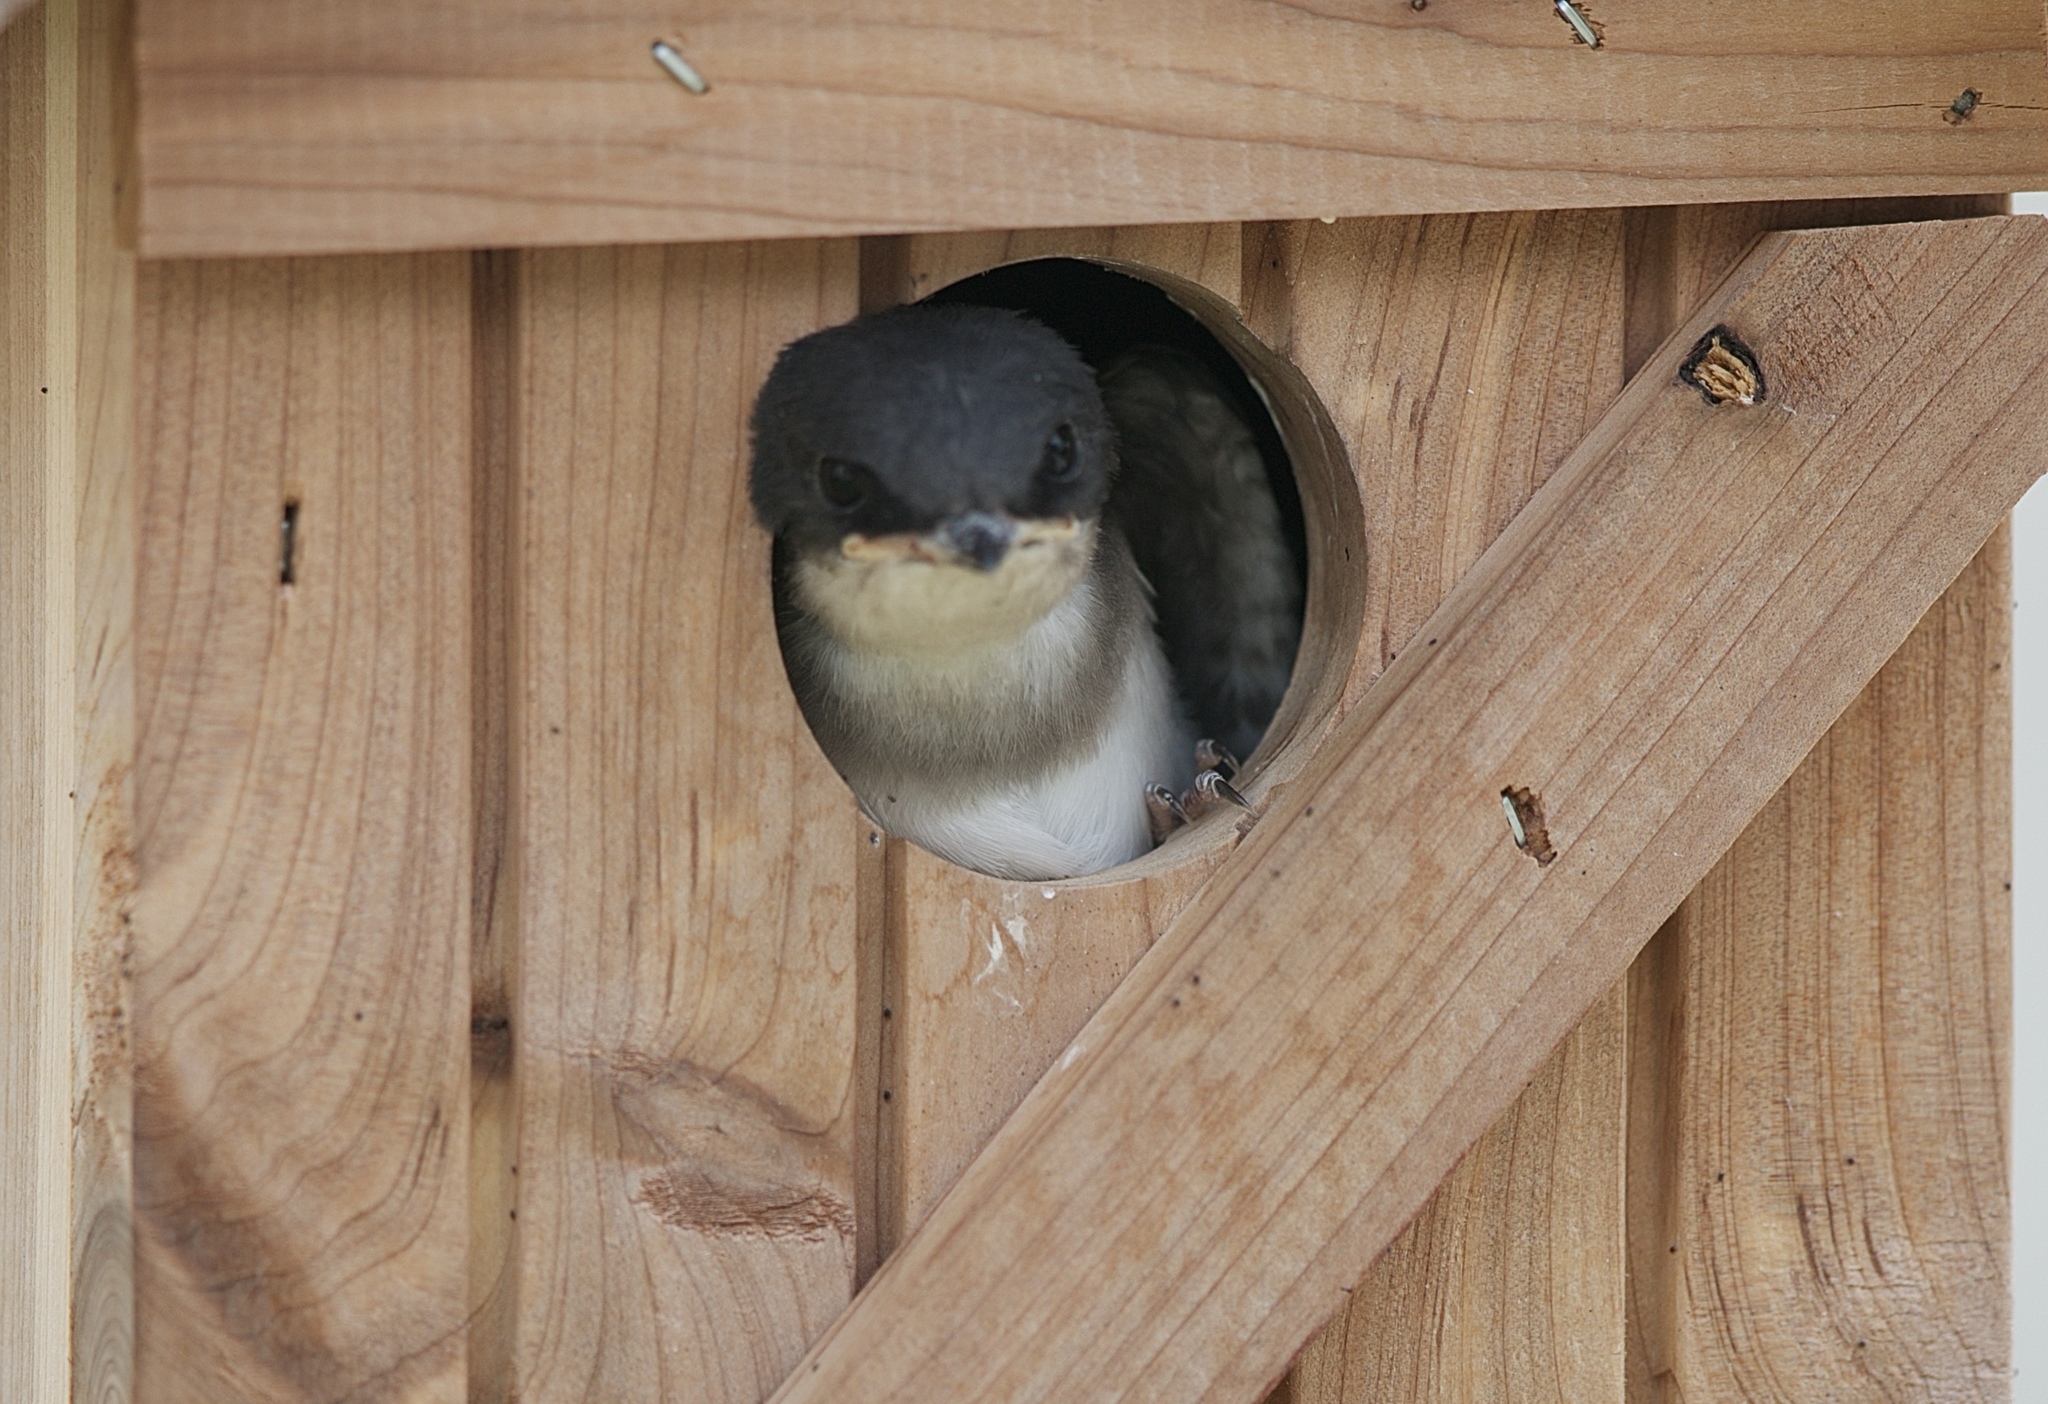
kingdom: Animalia
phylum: Chordata
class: Aves
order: Passeriformes
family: Hirundinidae
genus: Tachycineta
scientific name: Tachycineta bicolor
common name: Tree swallow
